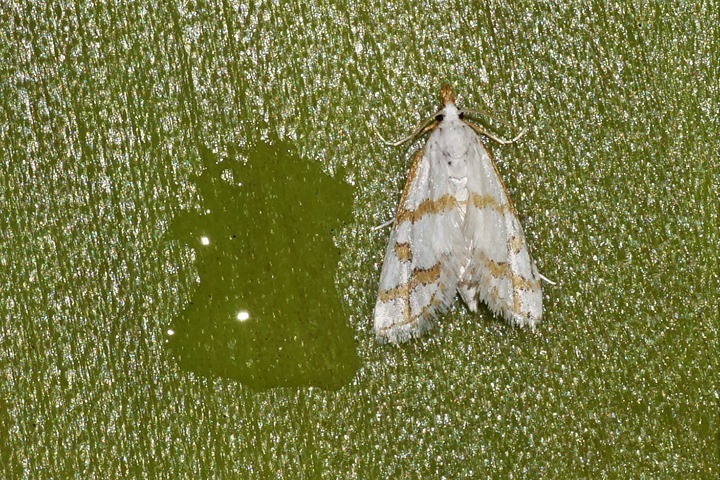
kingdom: Animalia
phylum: Arthropoda
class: Insecta
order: Lepidoptera
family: Crambidae
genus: Leptosteges
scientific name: Leptosteges
